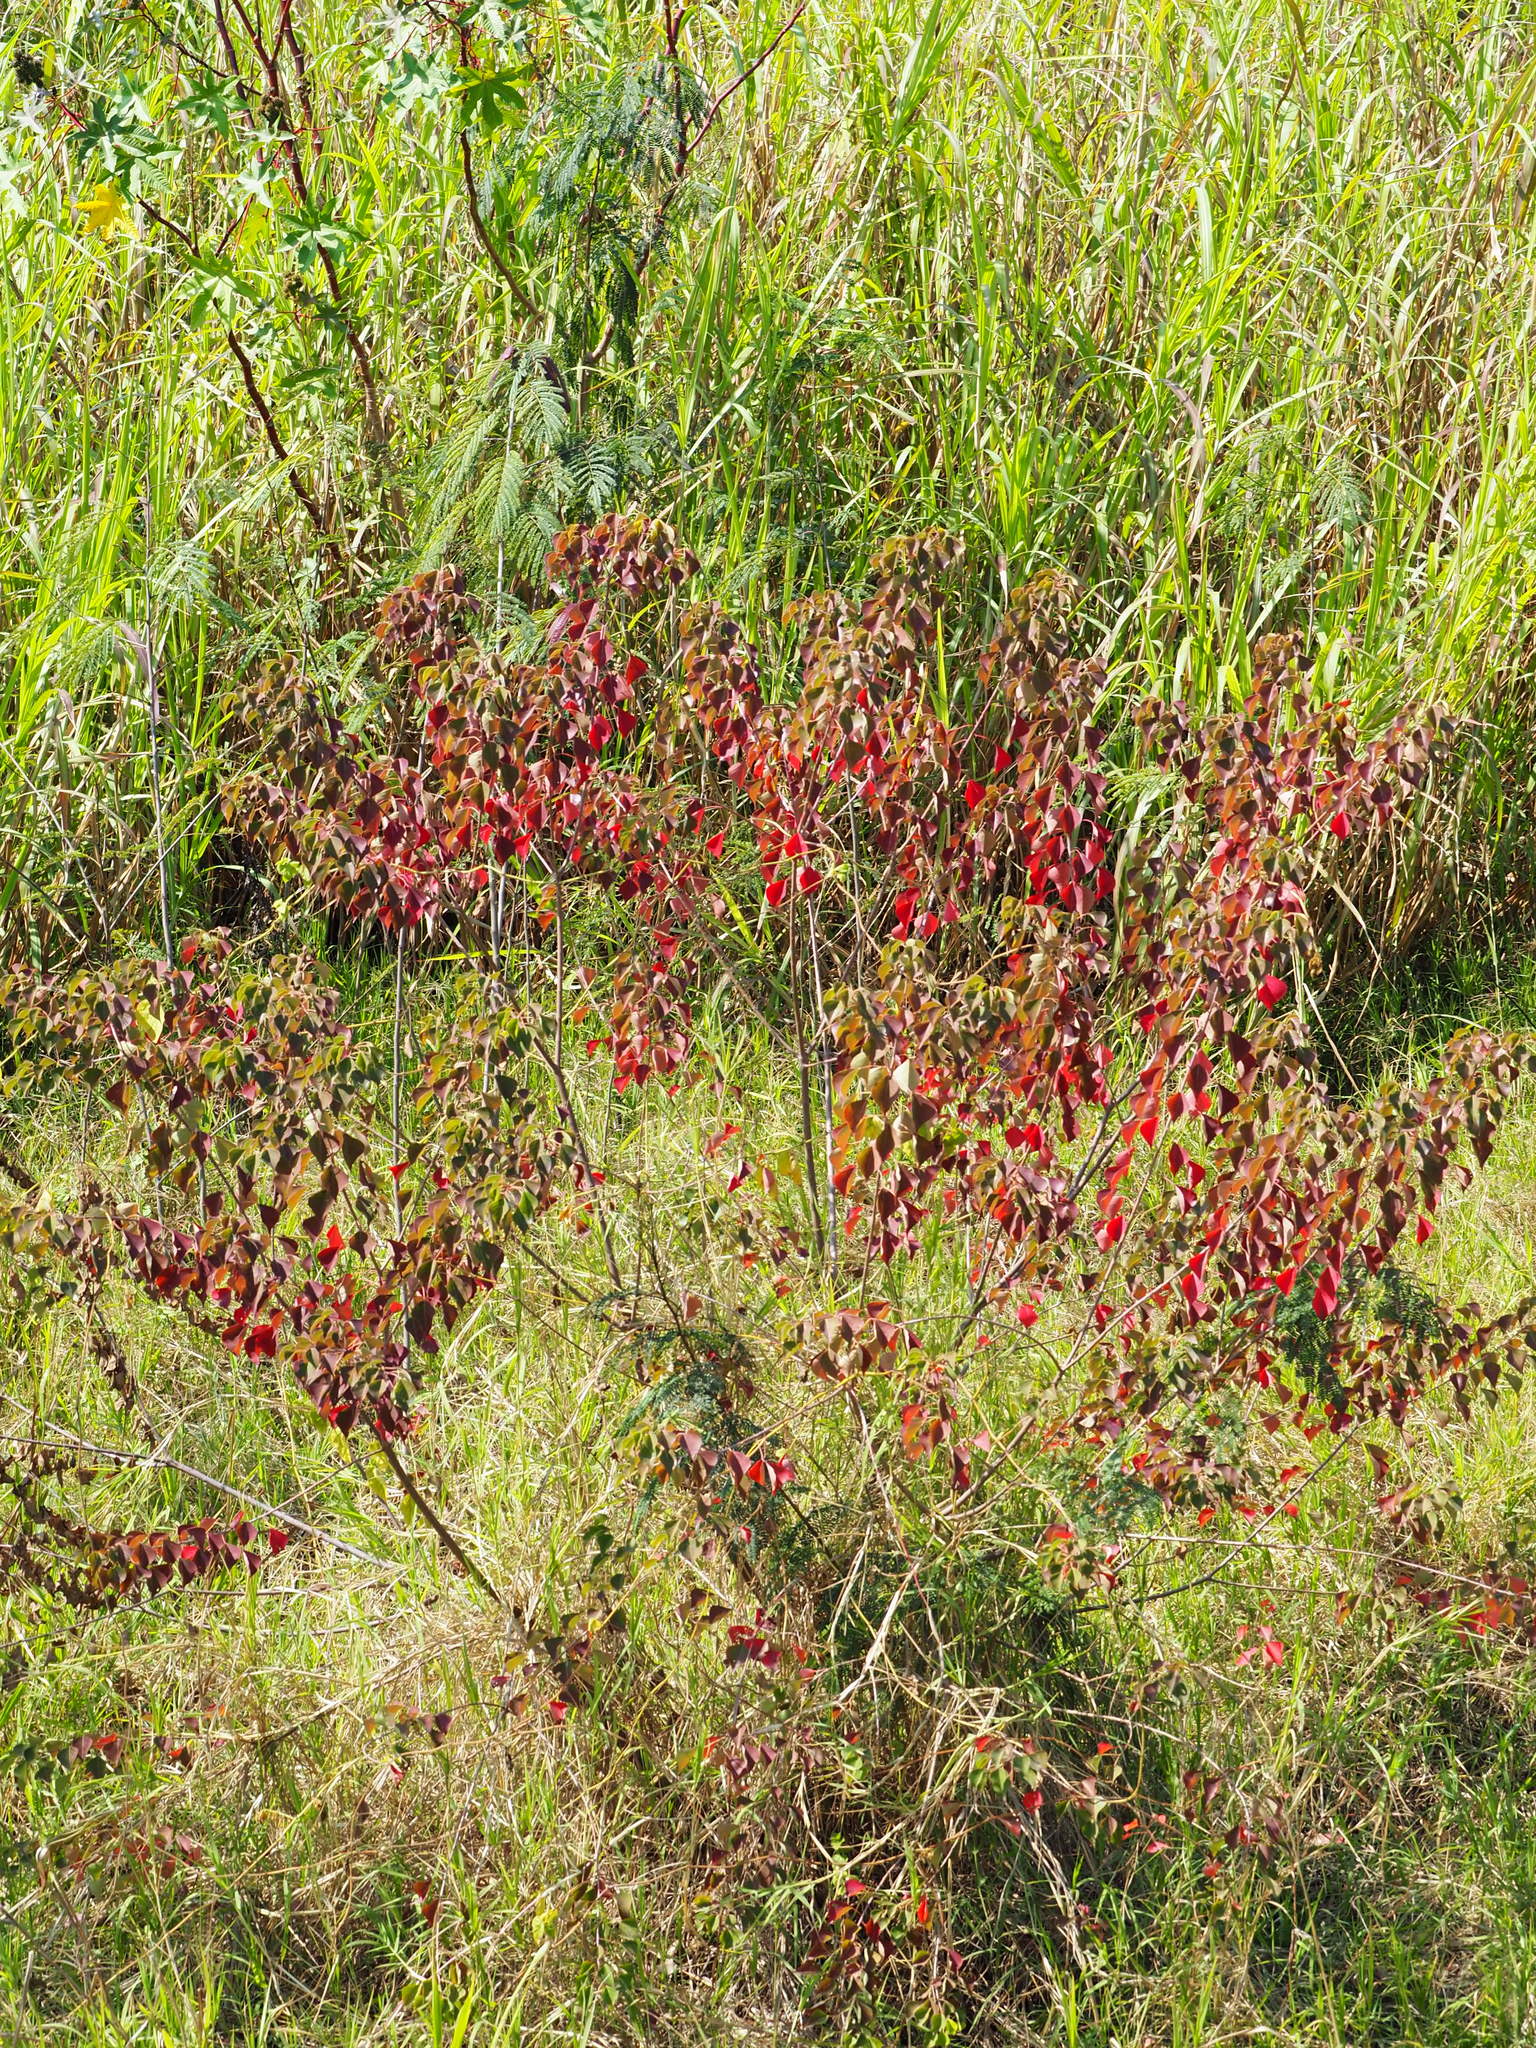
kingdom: Plantae
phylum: Tracheophyta
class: Magnoliopsida
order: Malpighiales
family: Euphorbiaceae
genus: Triadica
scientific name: Triadica sebifera
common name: Chinese tallow
